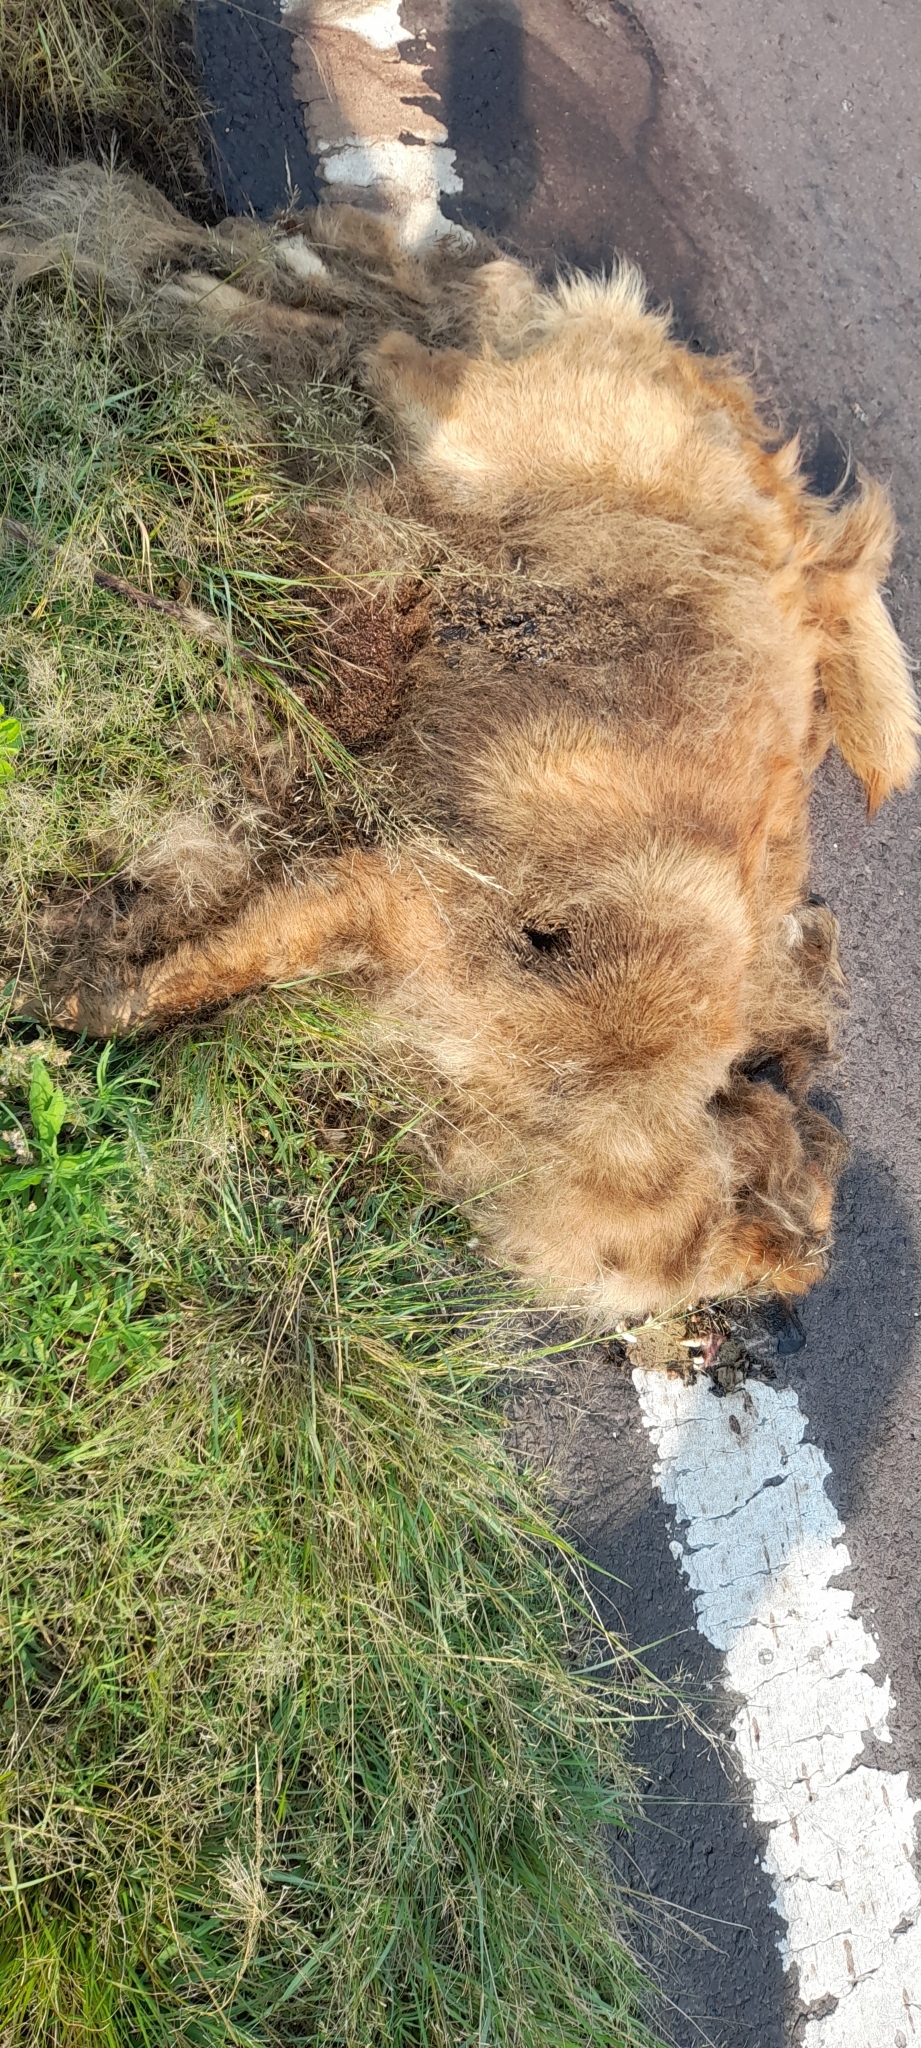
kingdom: Animalia
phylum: Chordata
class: Mammalia
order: Carnivora
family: Canidae
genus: Canis
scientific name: Canis lupus
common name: Gray wolf
